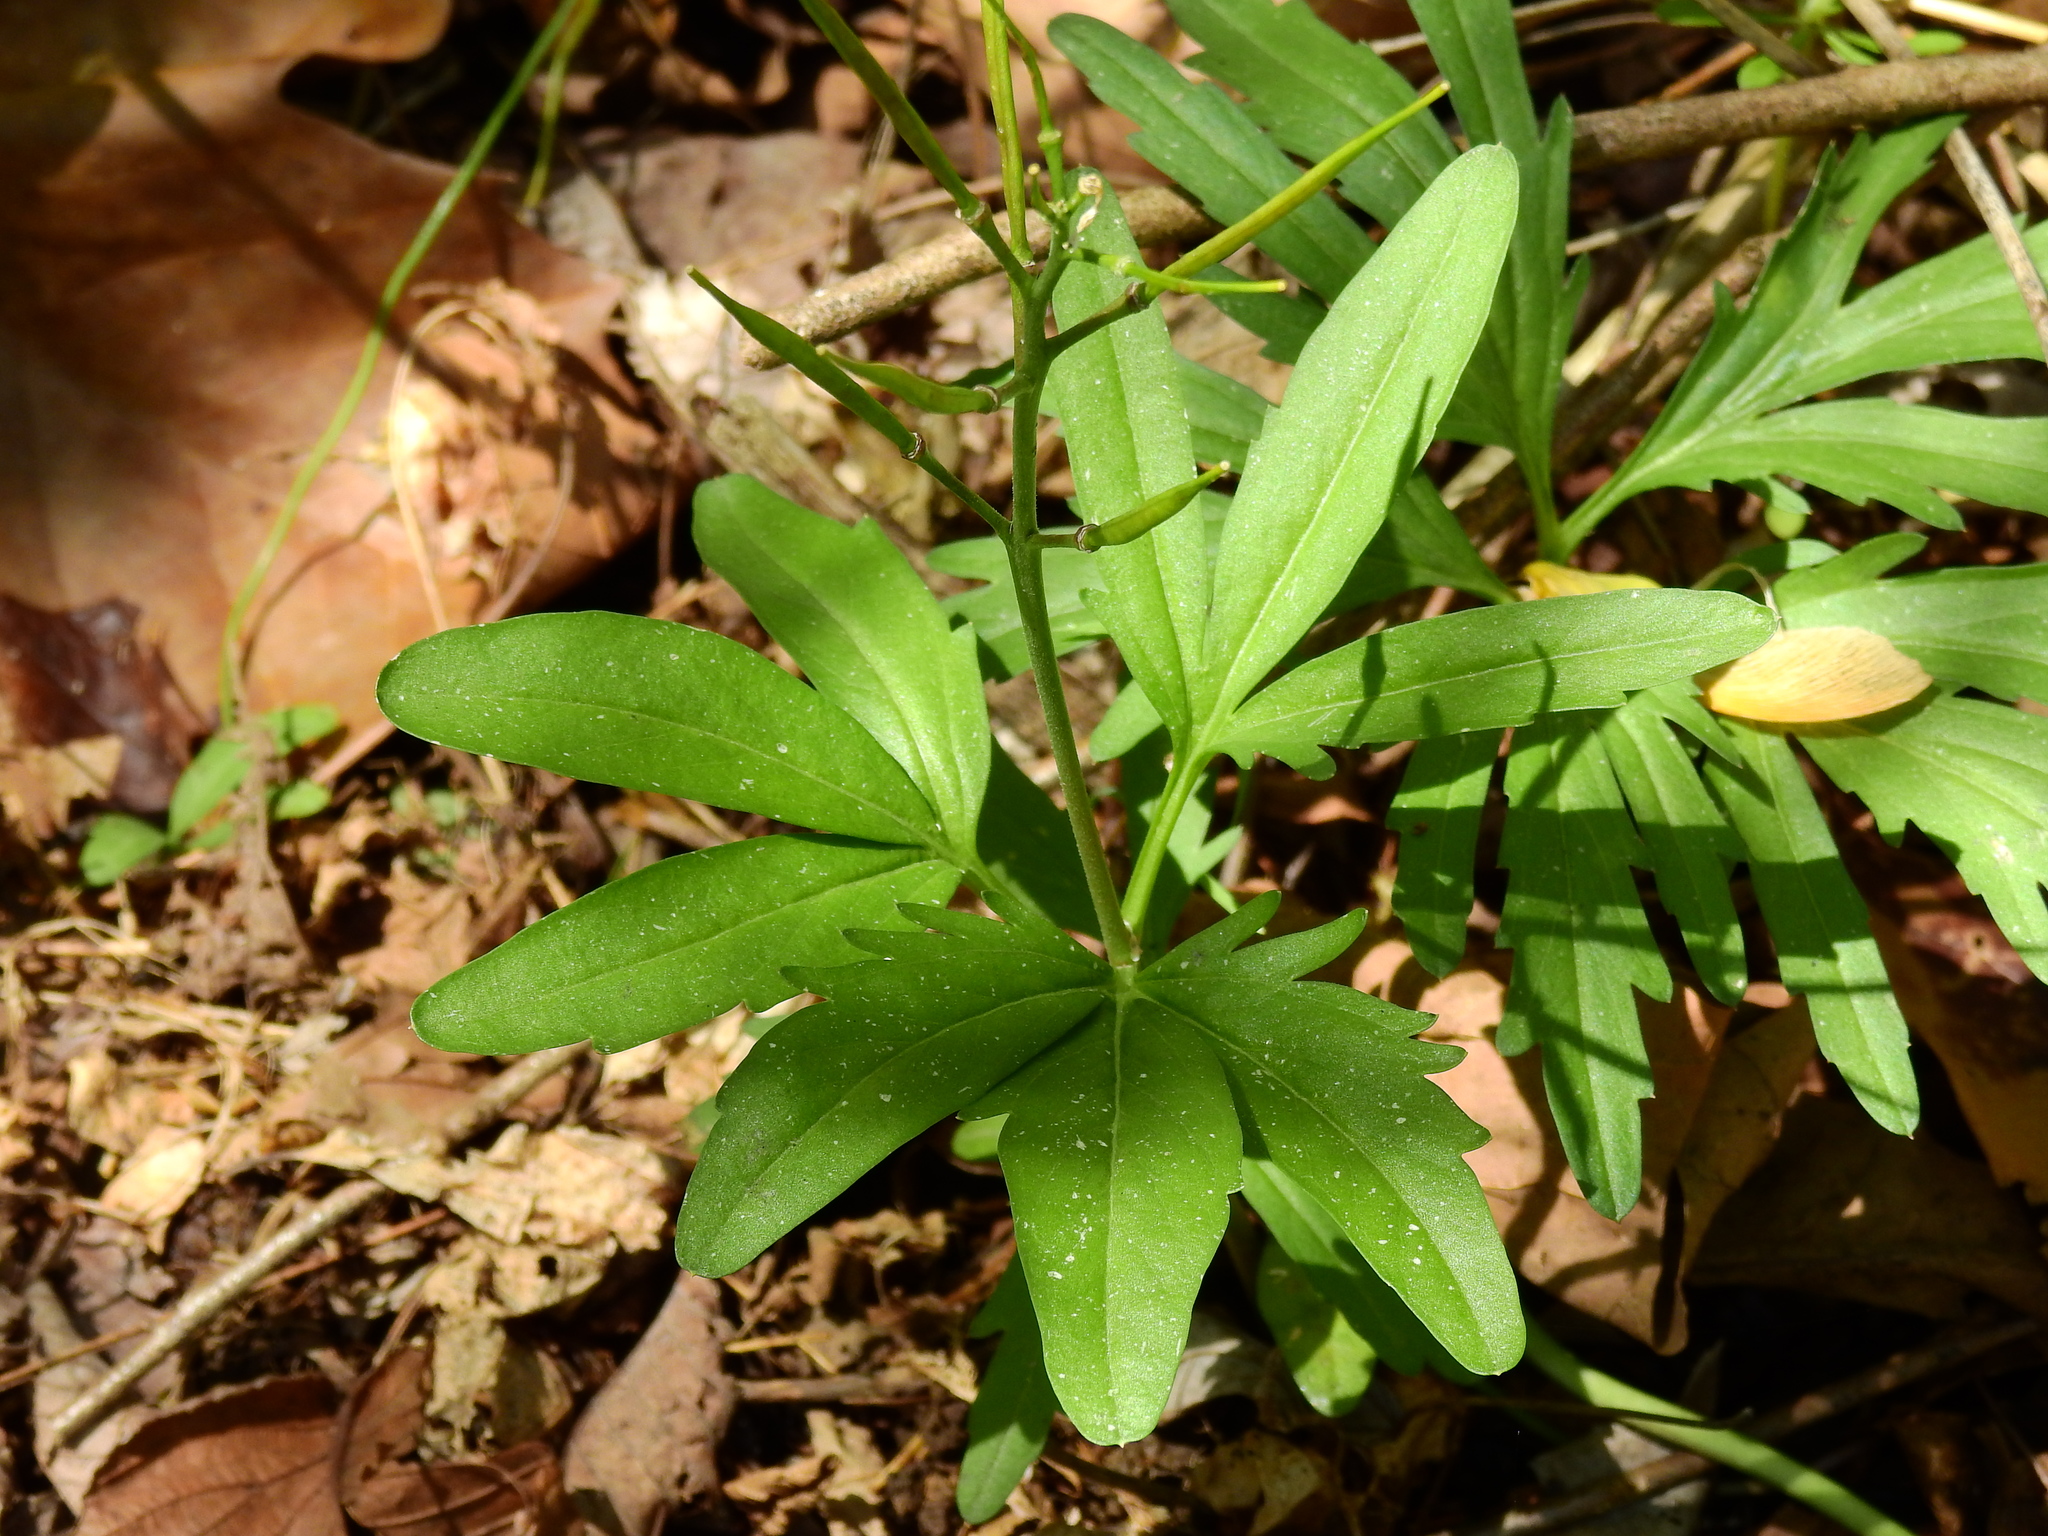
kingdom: Plantae
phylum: Tracheophyta
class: Magnoliopsida
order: Brassicales
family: Brassicaceae
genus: Cardamine
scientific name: Cardamine concatenata
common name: Cut-leaf toothcup
